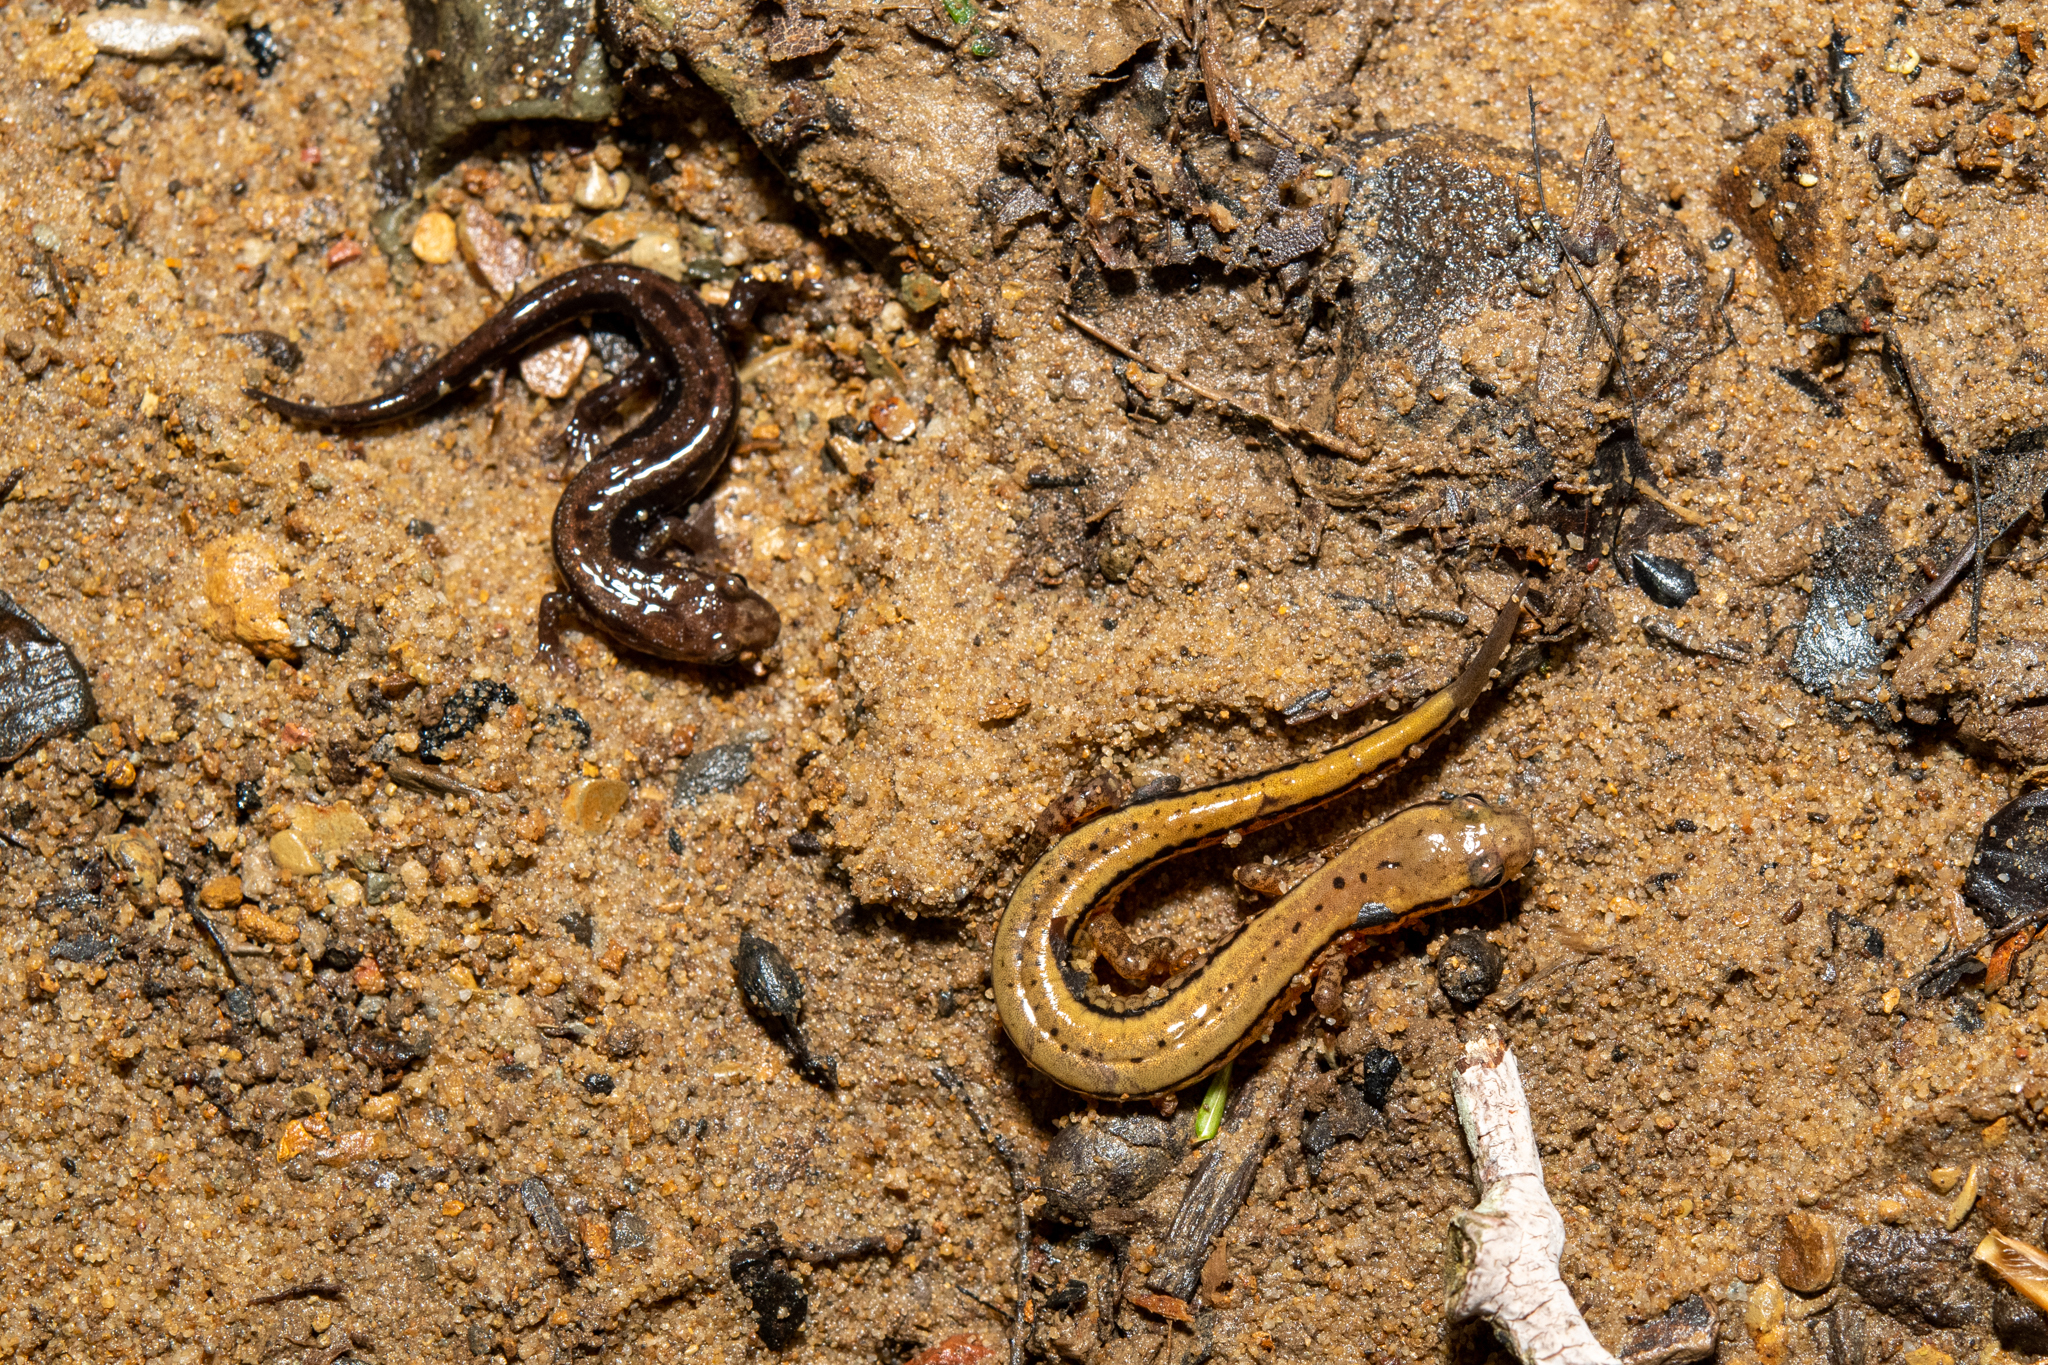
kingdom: Animalia
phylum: Chordata
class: Amphibia
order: Caudata
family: Plethodontidae
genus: Eurycea
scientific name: Eurycea bislineata
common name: Northern two-lined salamander
